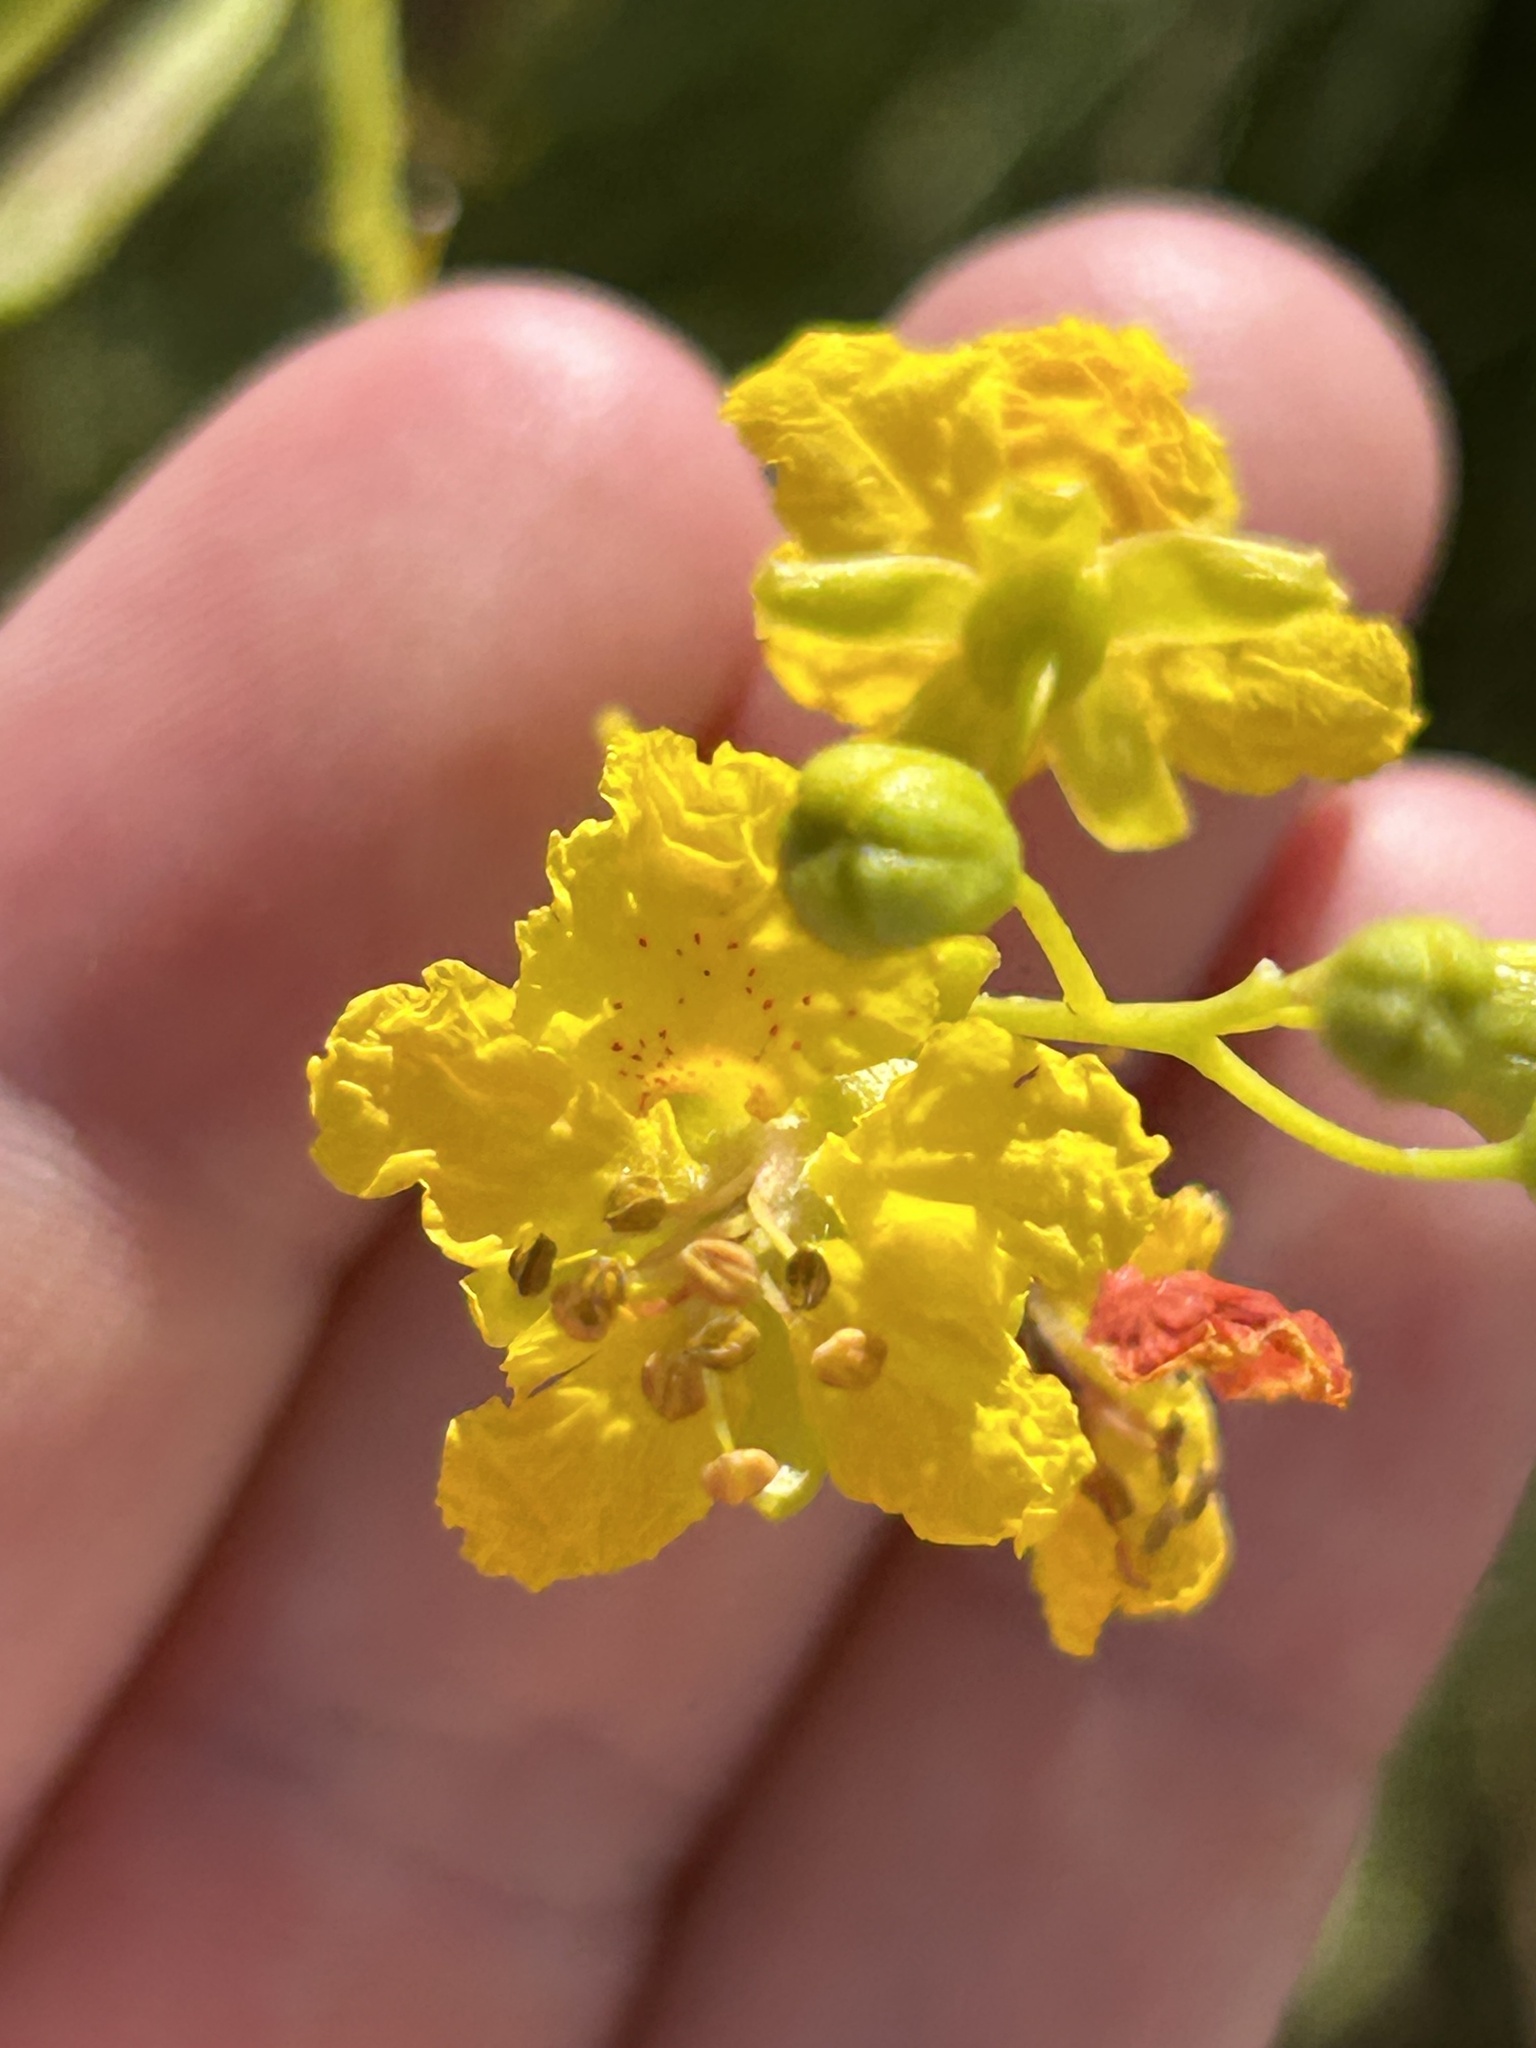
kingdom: Plantae
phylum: Tracheophyta
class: Magnoliopsida
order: Fabales
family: Fabaceae
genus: Parkinsonia
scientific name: Parkinsonia aculeata
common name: Jerusalem thorn
